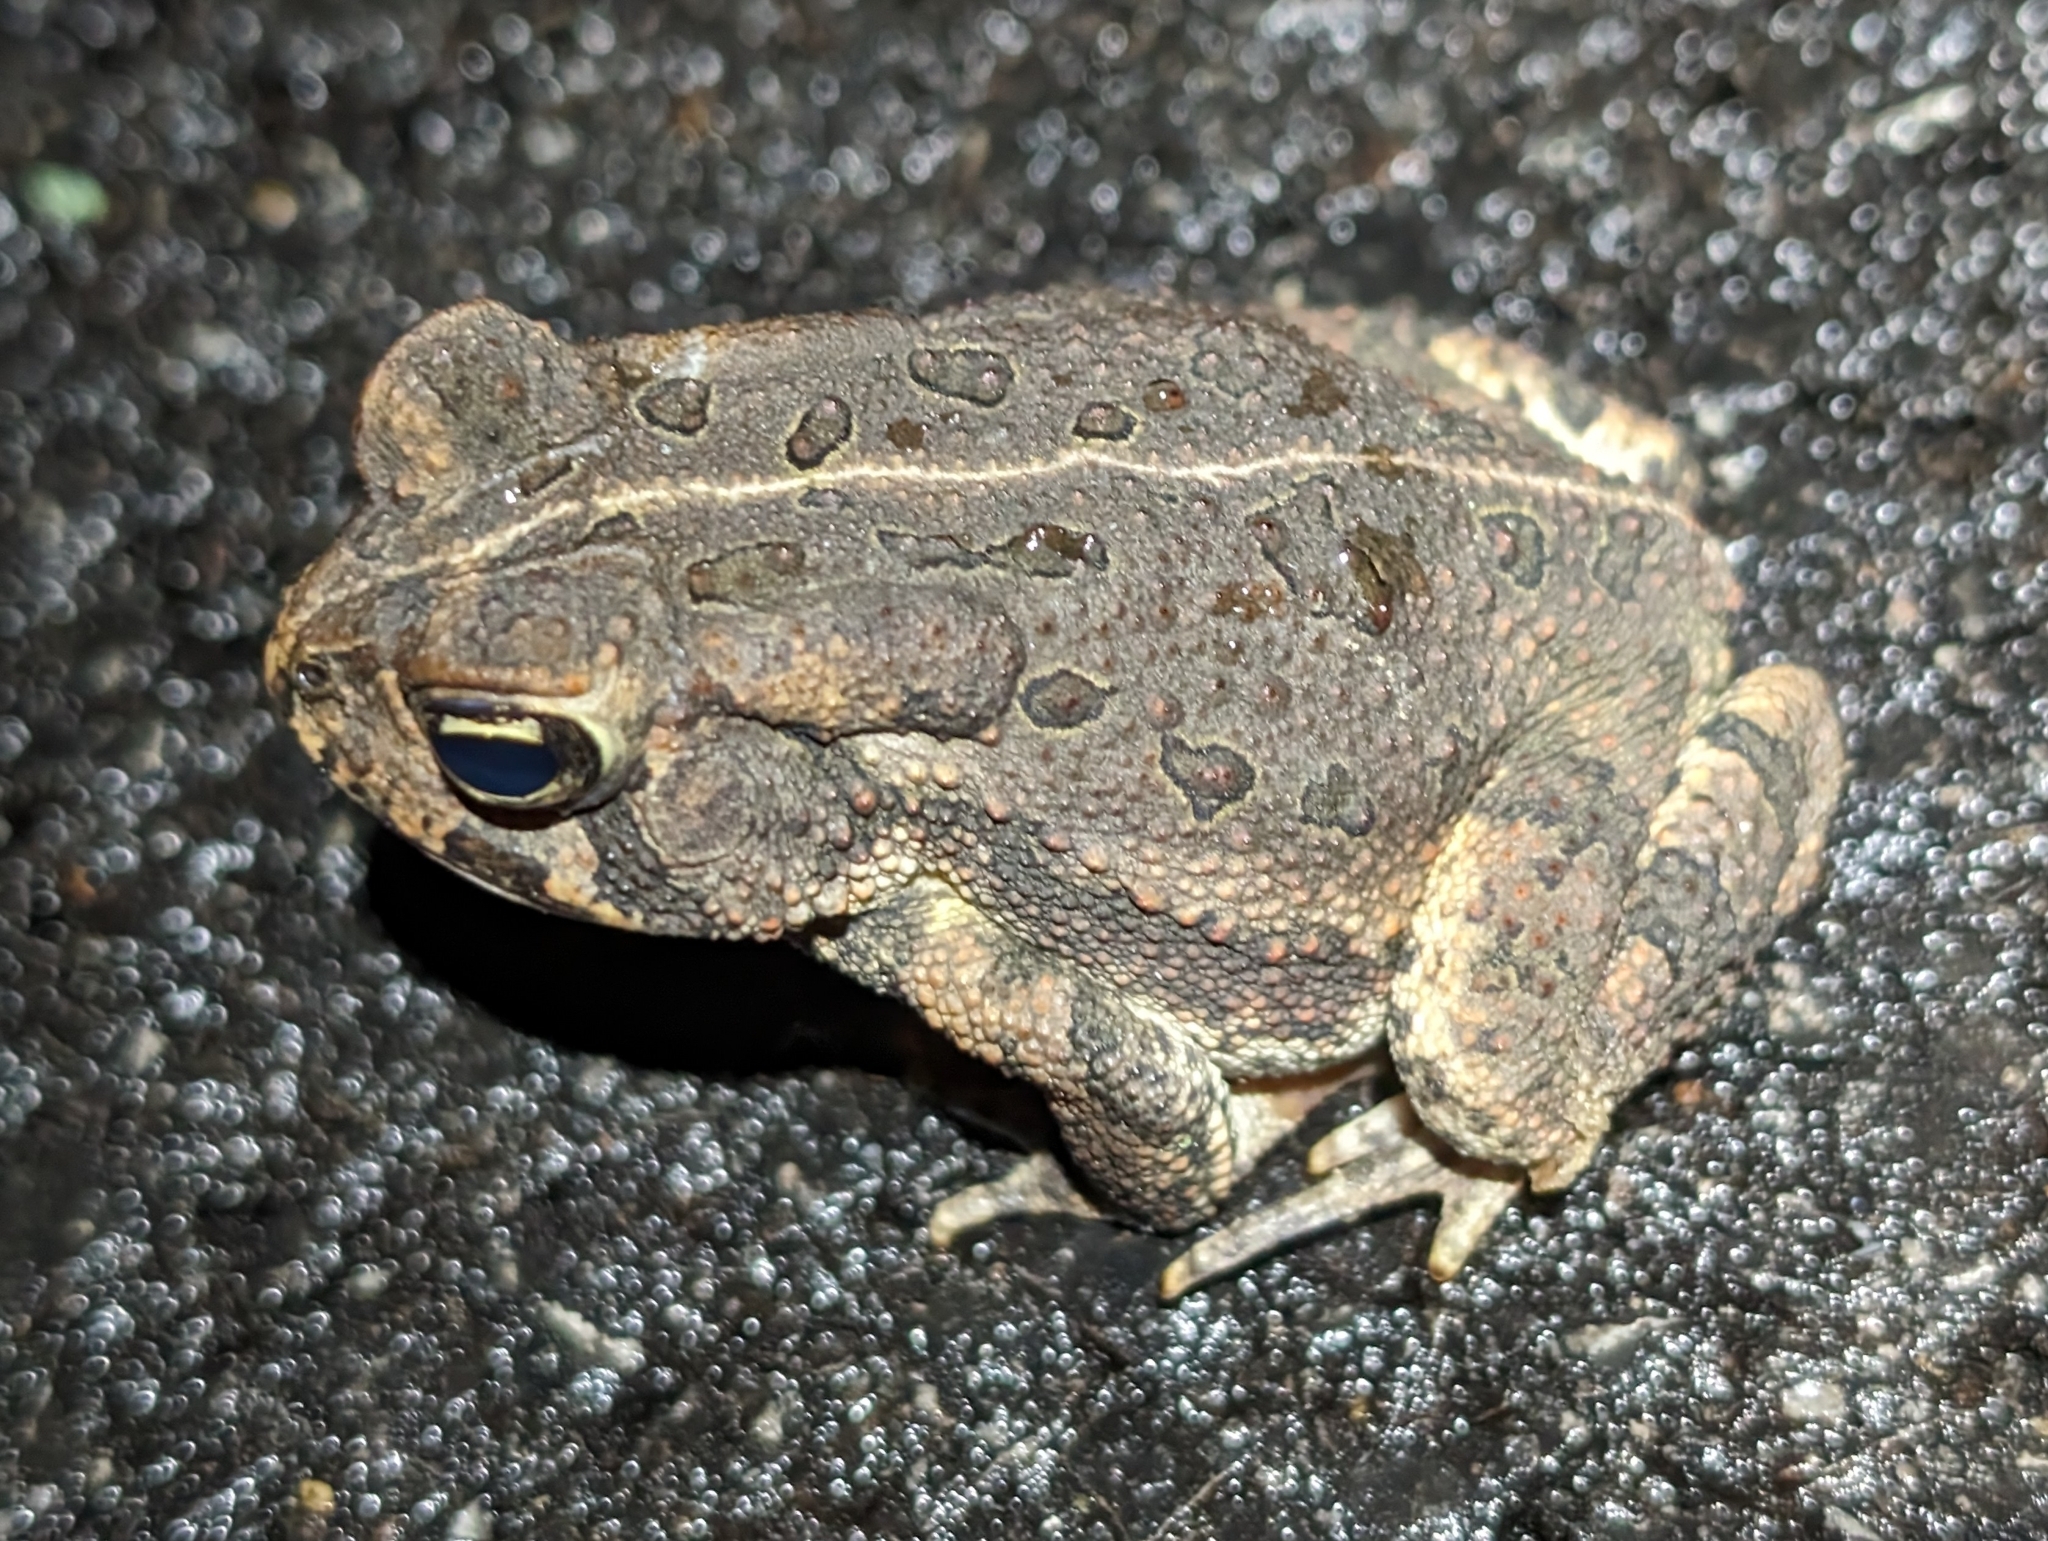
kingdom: Animalia
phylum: Chordata
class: Amphibia
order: Anura
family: Bufonidae
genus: Anaxyrus
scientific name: Anaxyrus fowleri
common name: Fowler's toad
